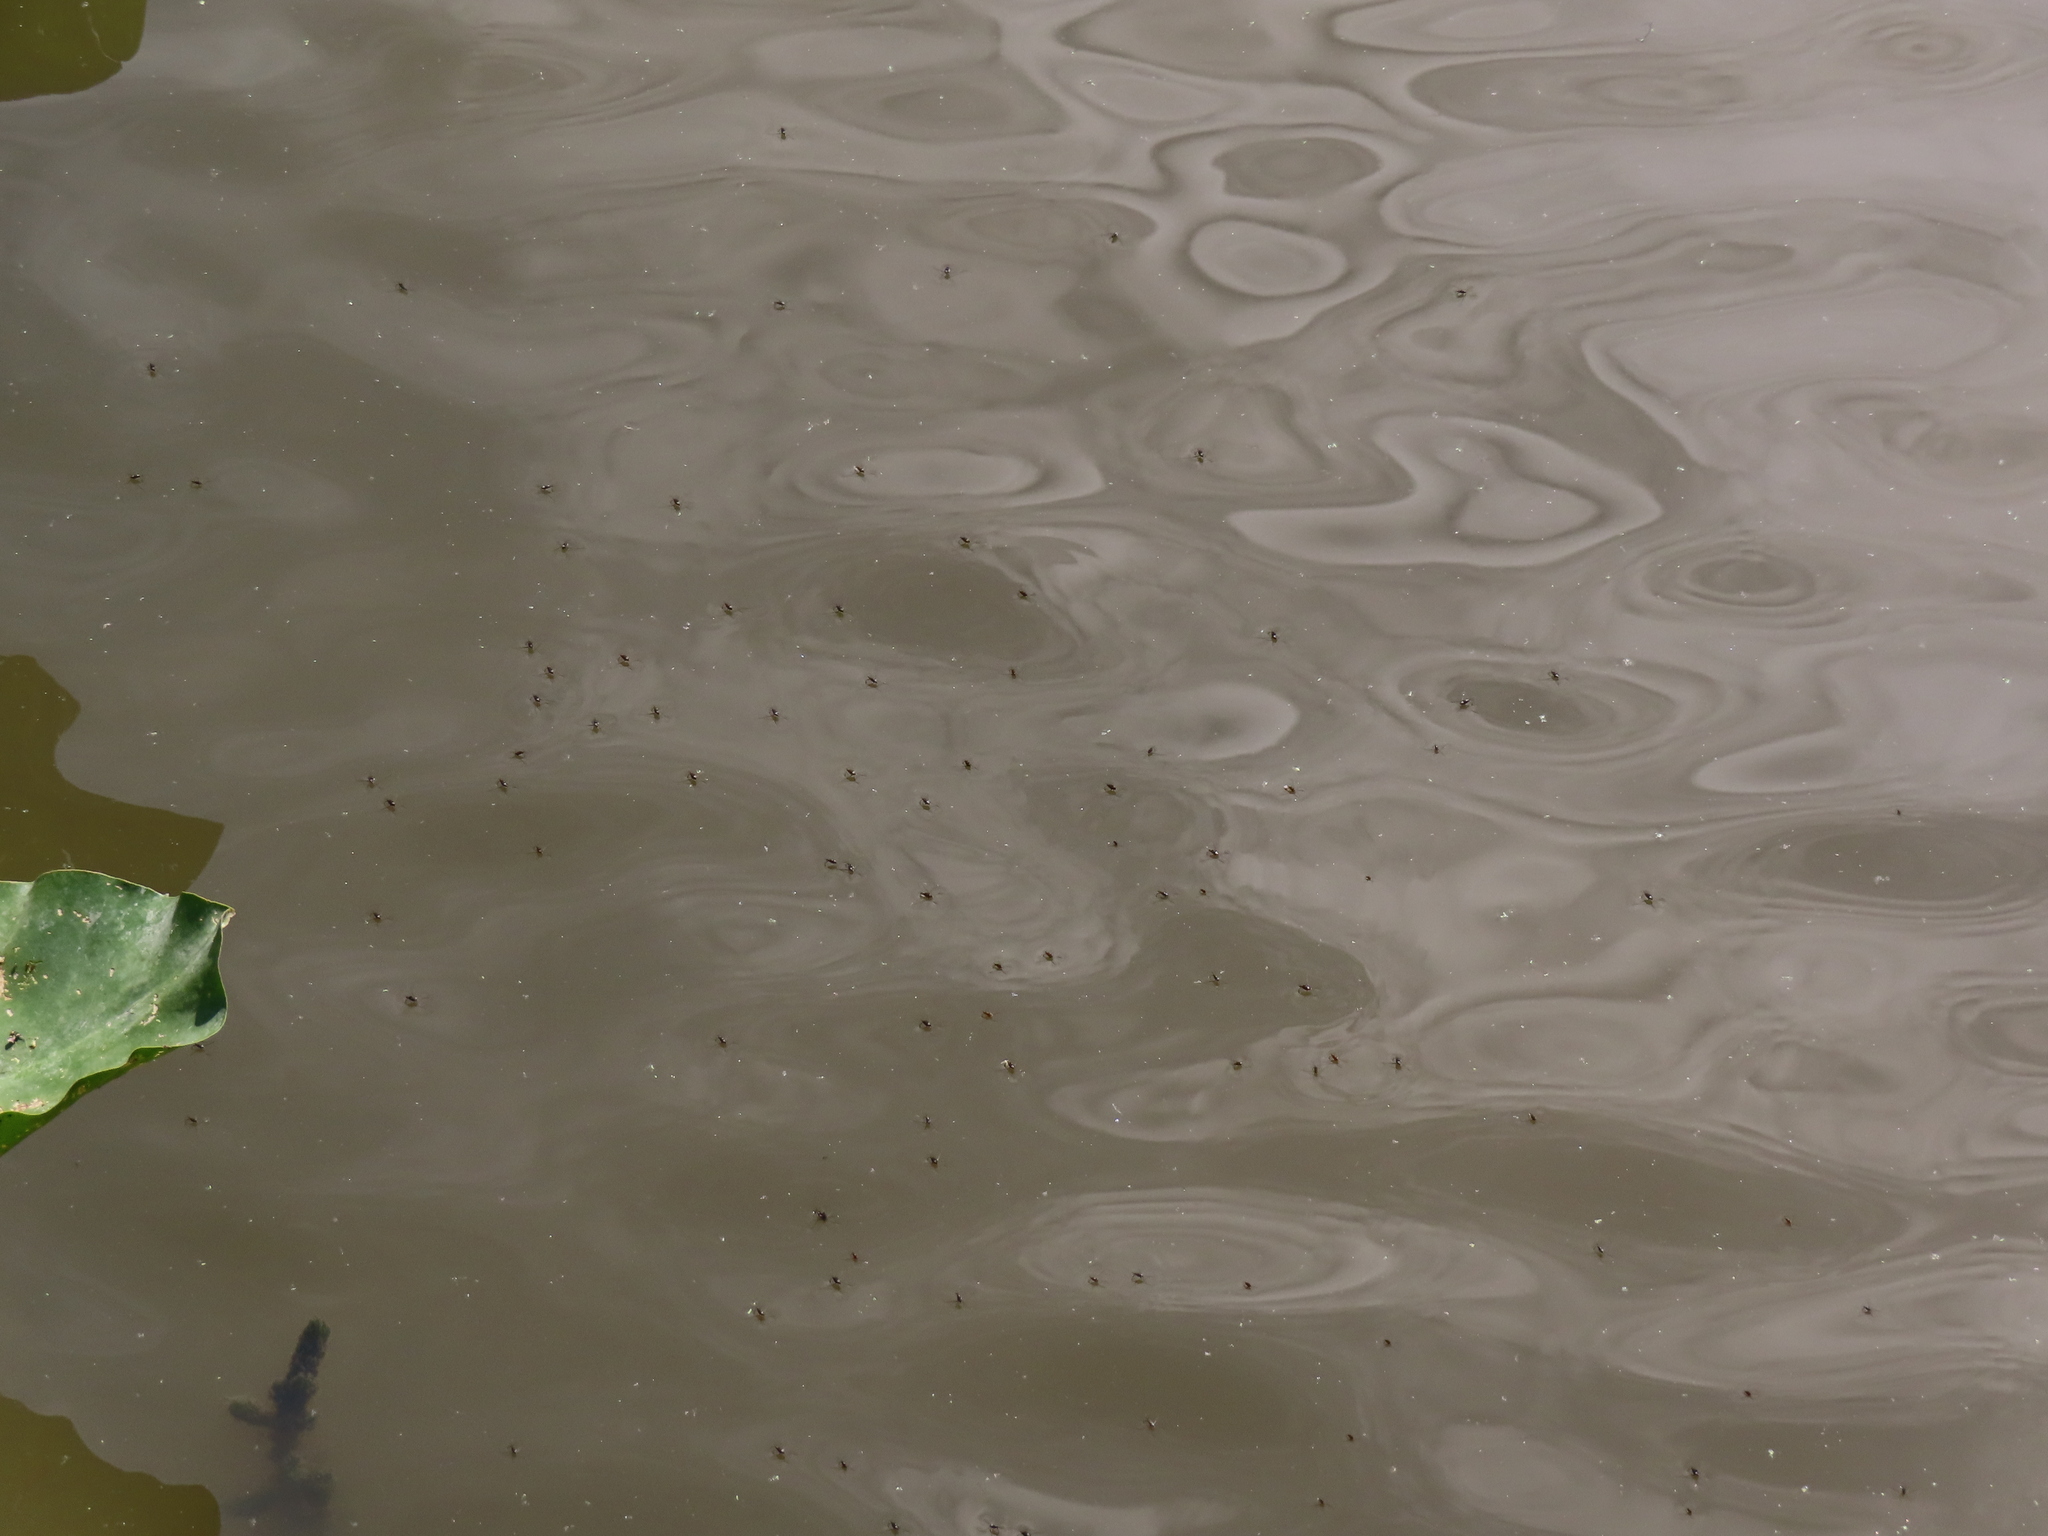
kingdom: Animalia
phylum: Arthropoda
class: Insecta
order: Hemiptera
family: Gerridae
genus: Trepobates
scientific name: Trepobates
